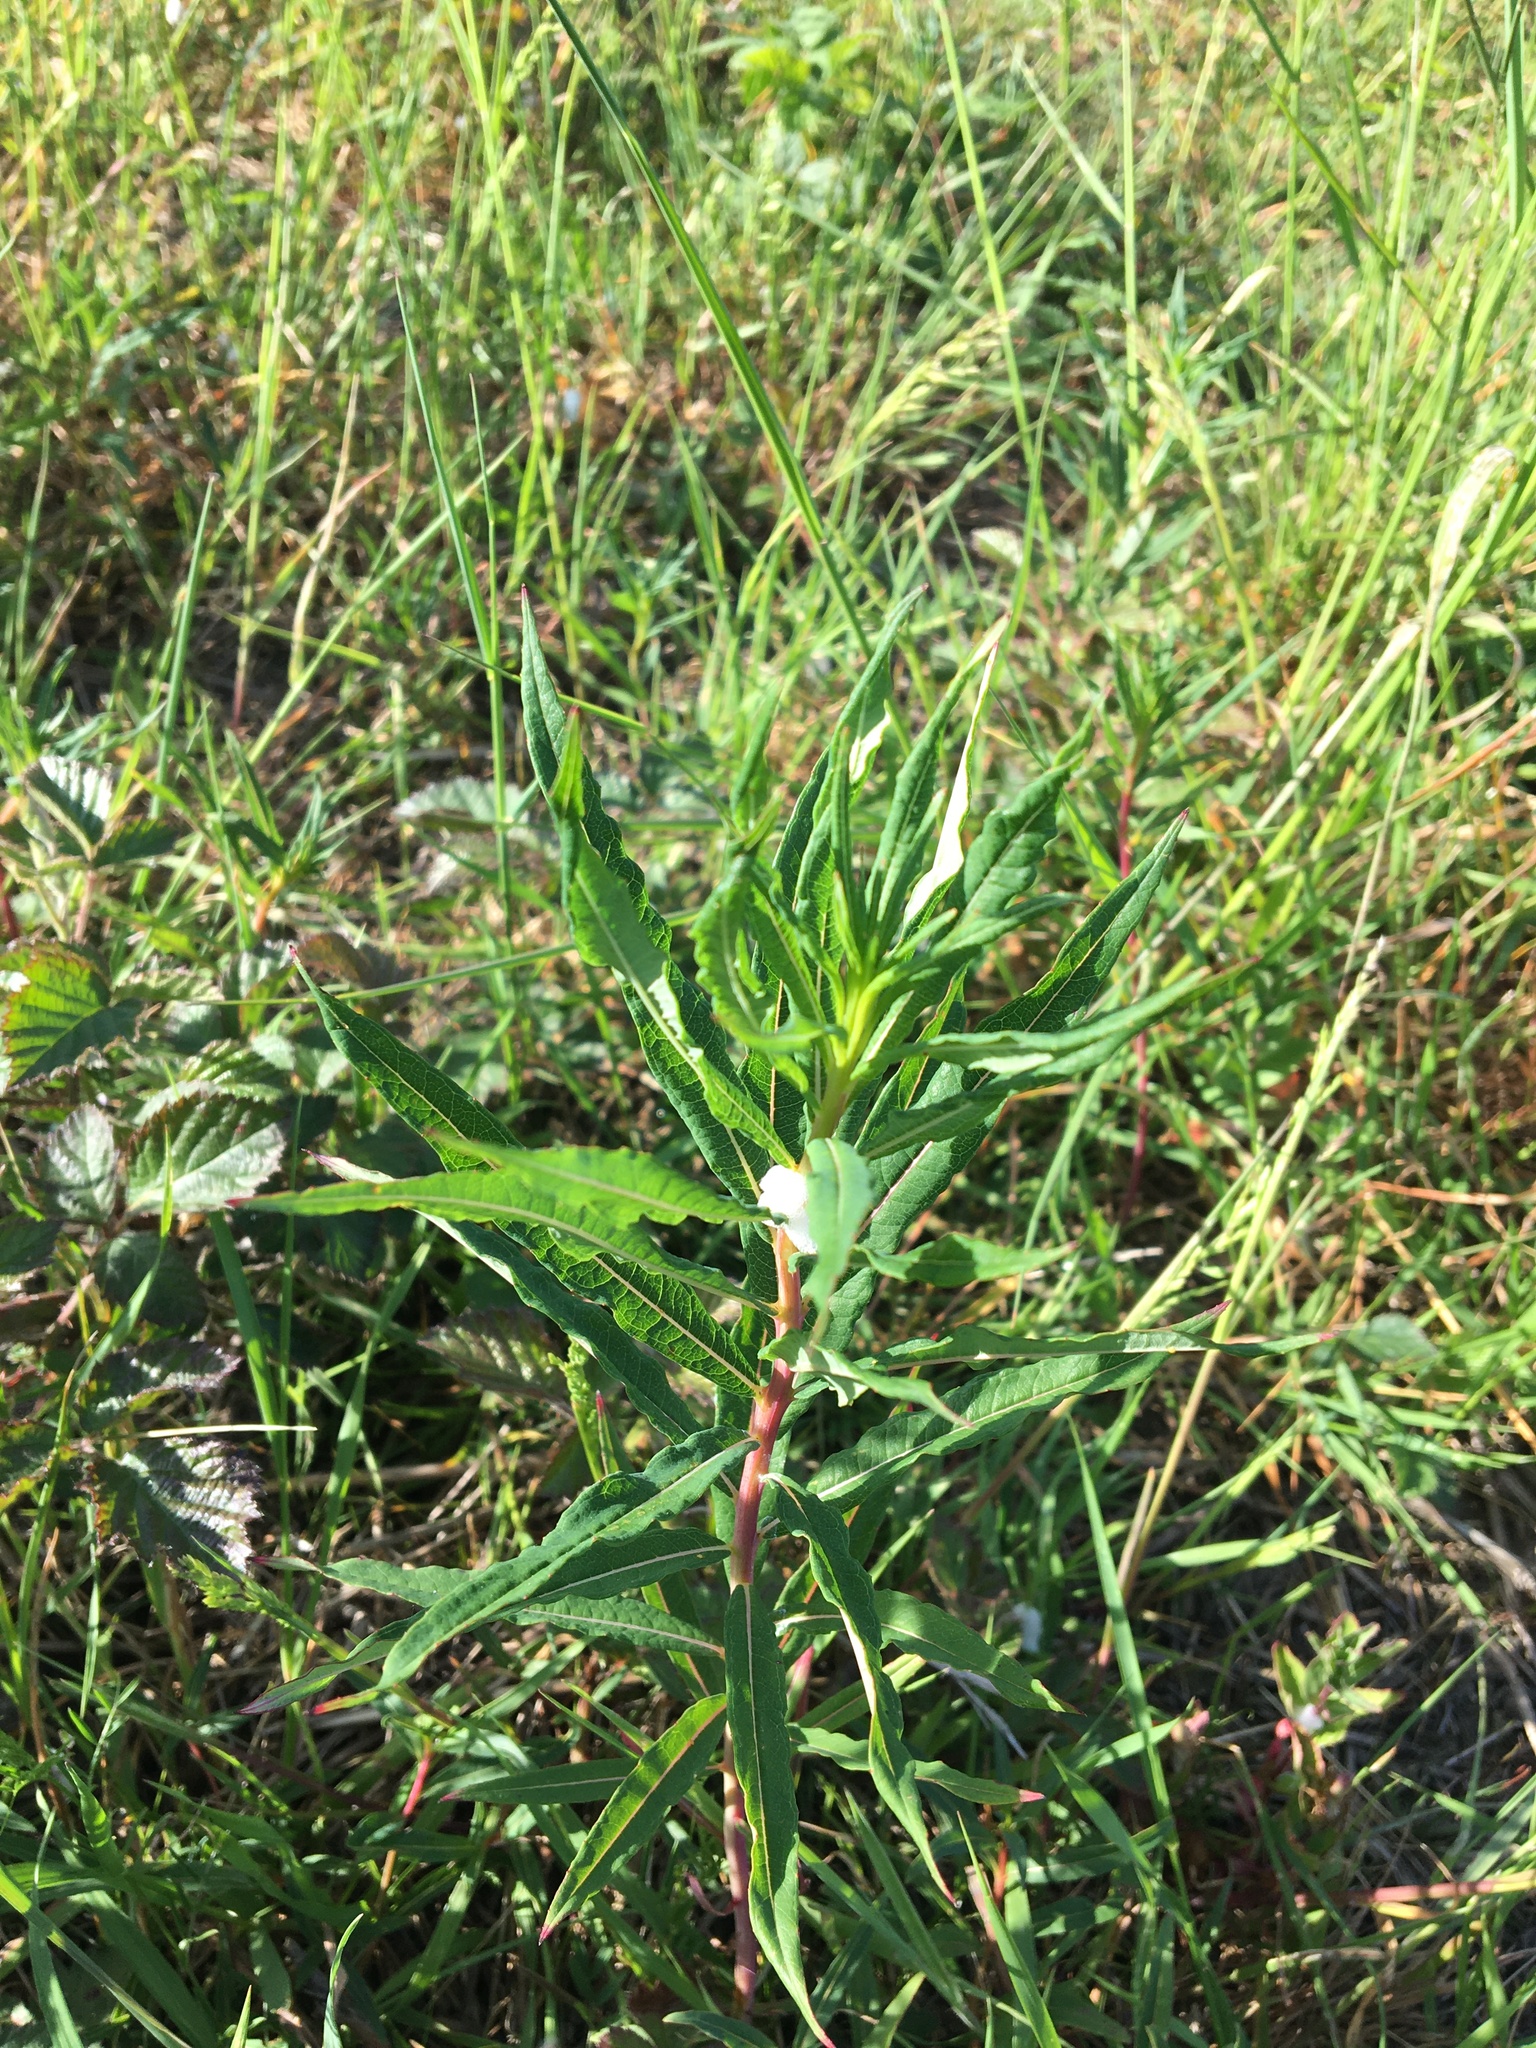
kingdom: Plantae
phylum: Tracheophyta
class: Magnoliopsida
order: Myrtales
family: Onagraceae
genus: Chamaenerion
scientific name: Chamaenerion angustifolium
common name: Fireweed
